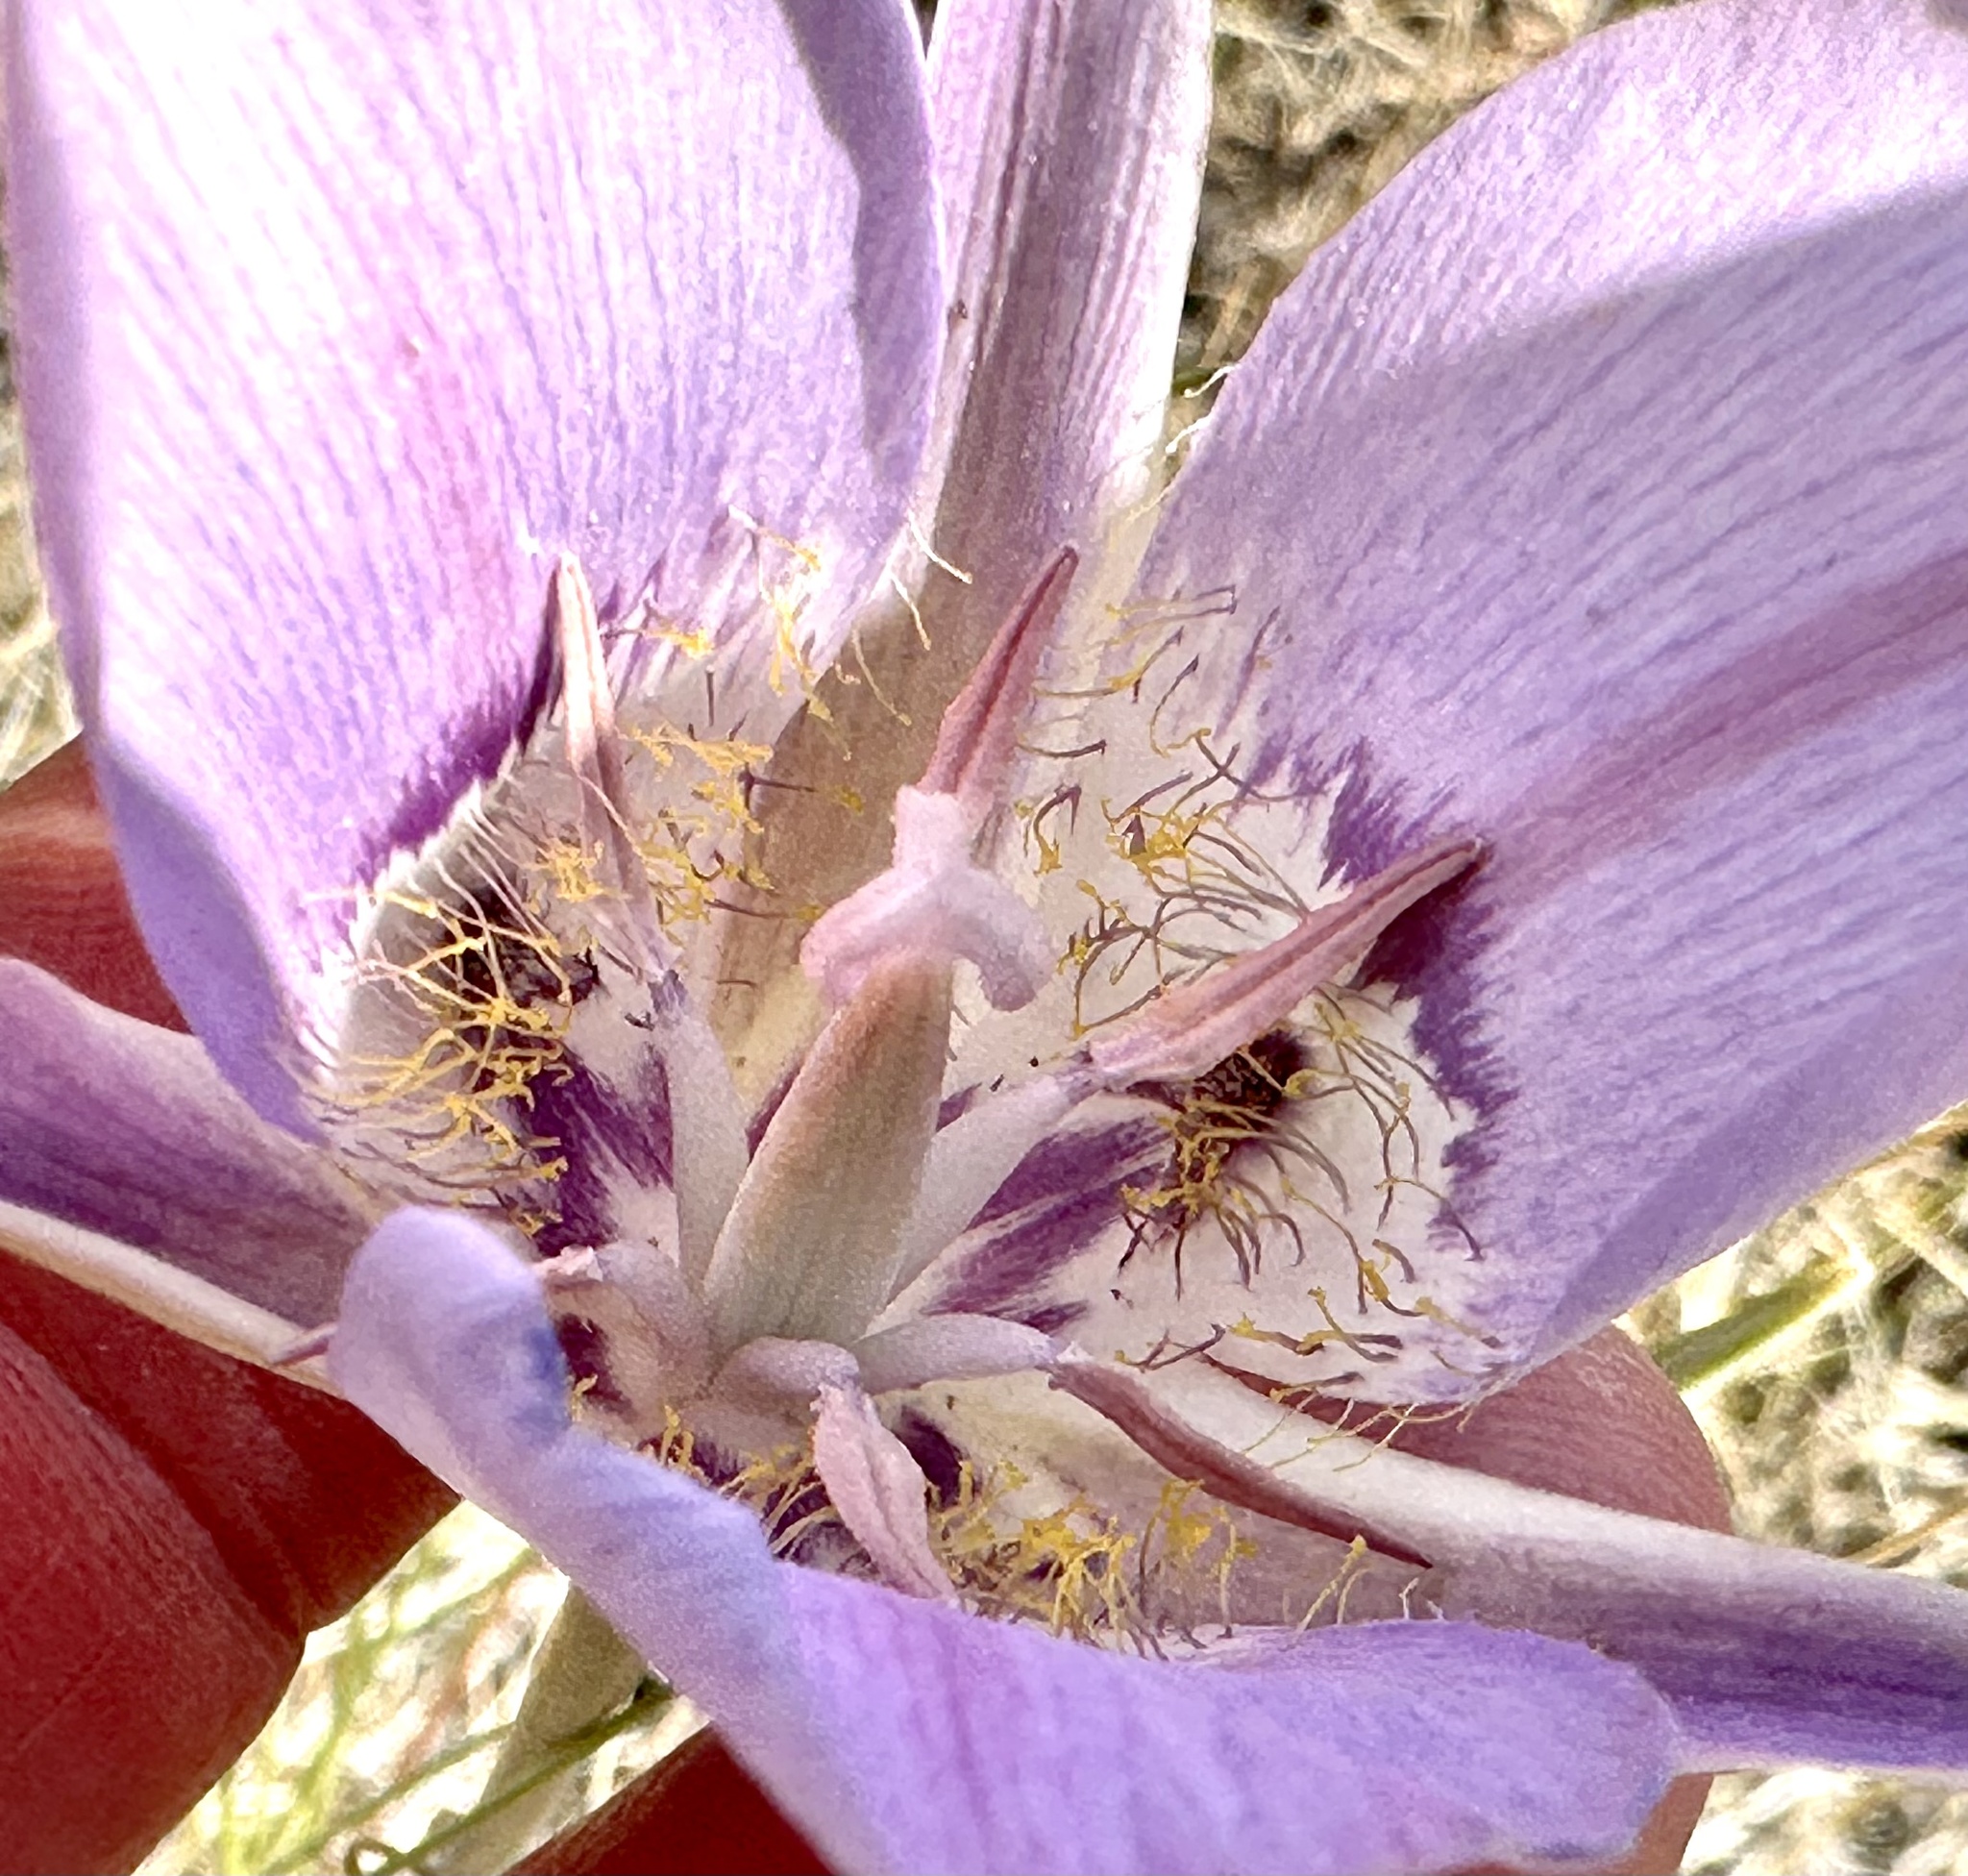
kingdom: Plantae
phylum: Tracheophyta
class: Liliopsida
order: Liliales
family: Liliaceae
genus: Calochortus
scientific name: Calochortus macrocarpus
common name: Green-band mariposa lily
